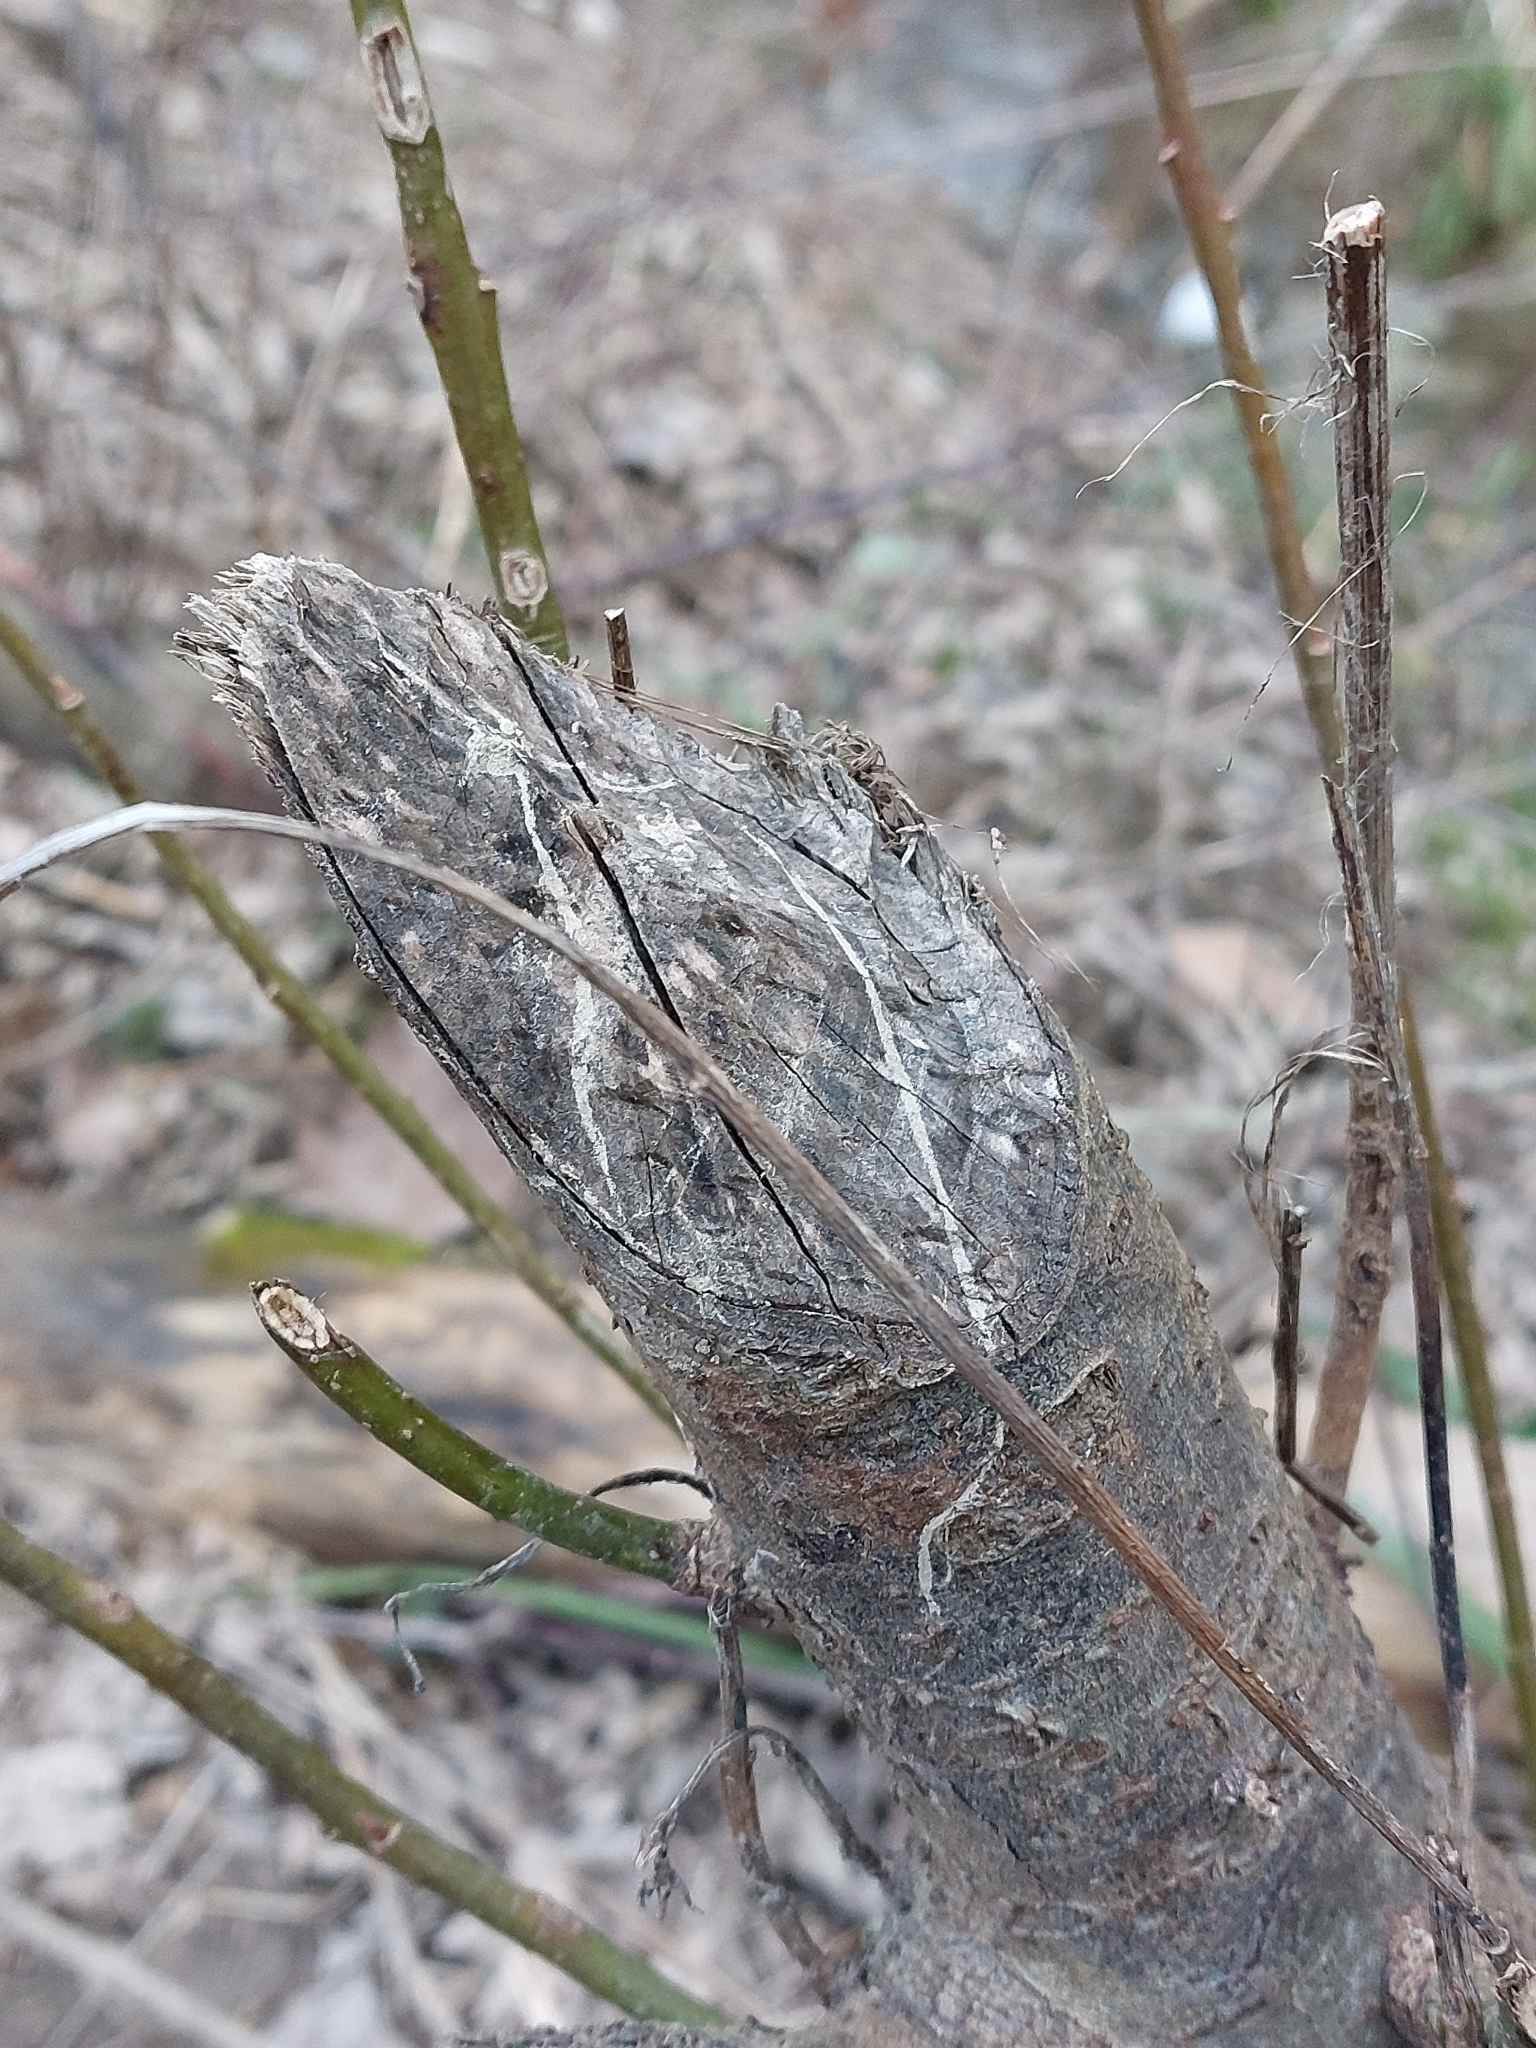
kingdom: Animalia
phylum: Chordata
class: Mammalia
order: Rodentia
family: Castoridae
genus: Castor
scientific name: Castor fiber
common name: Eurasian beaver
